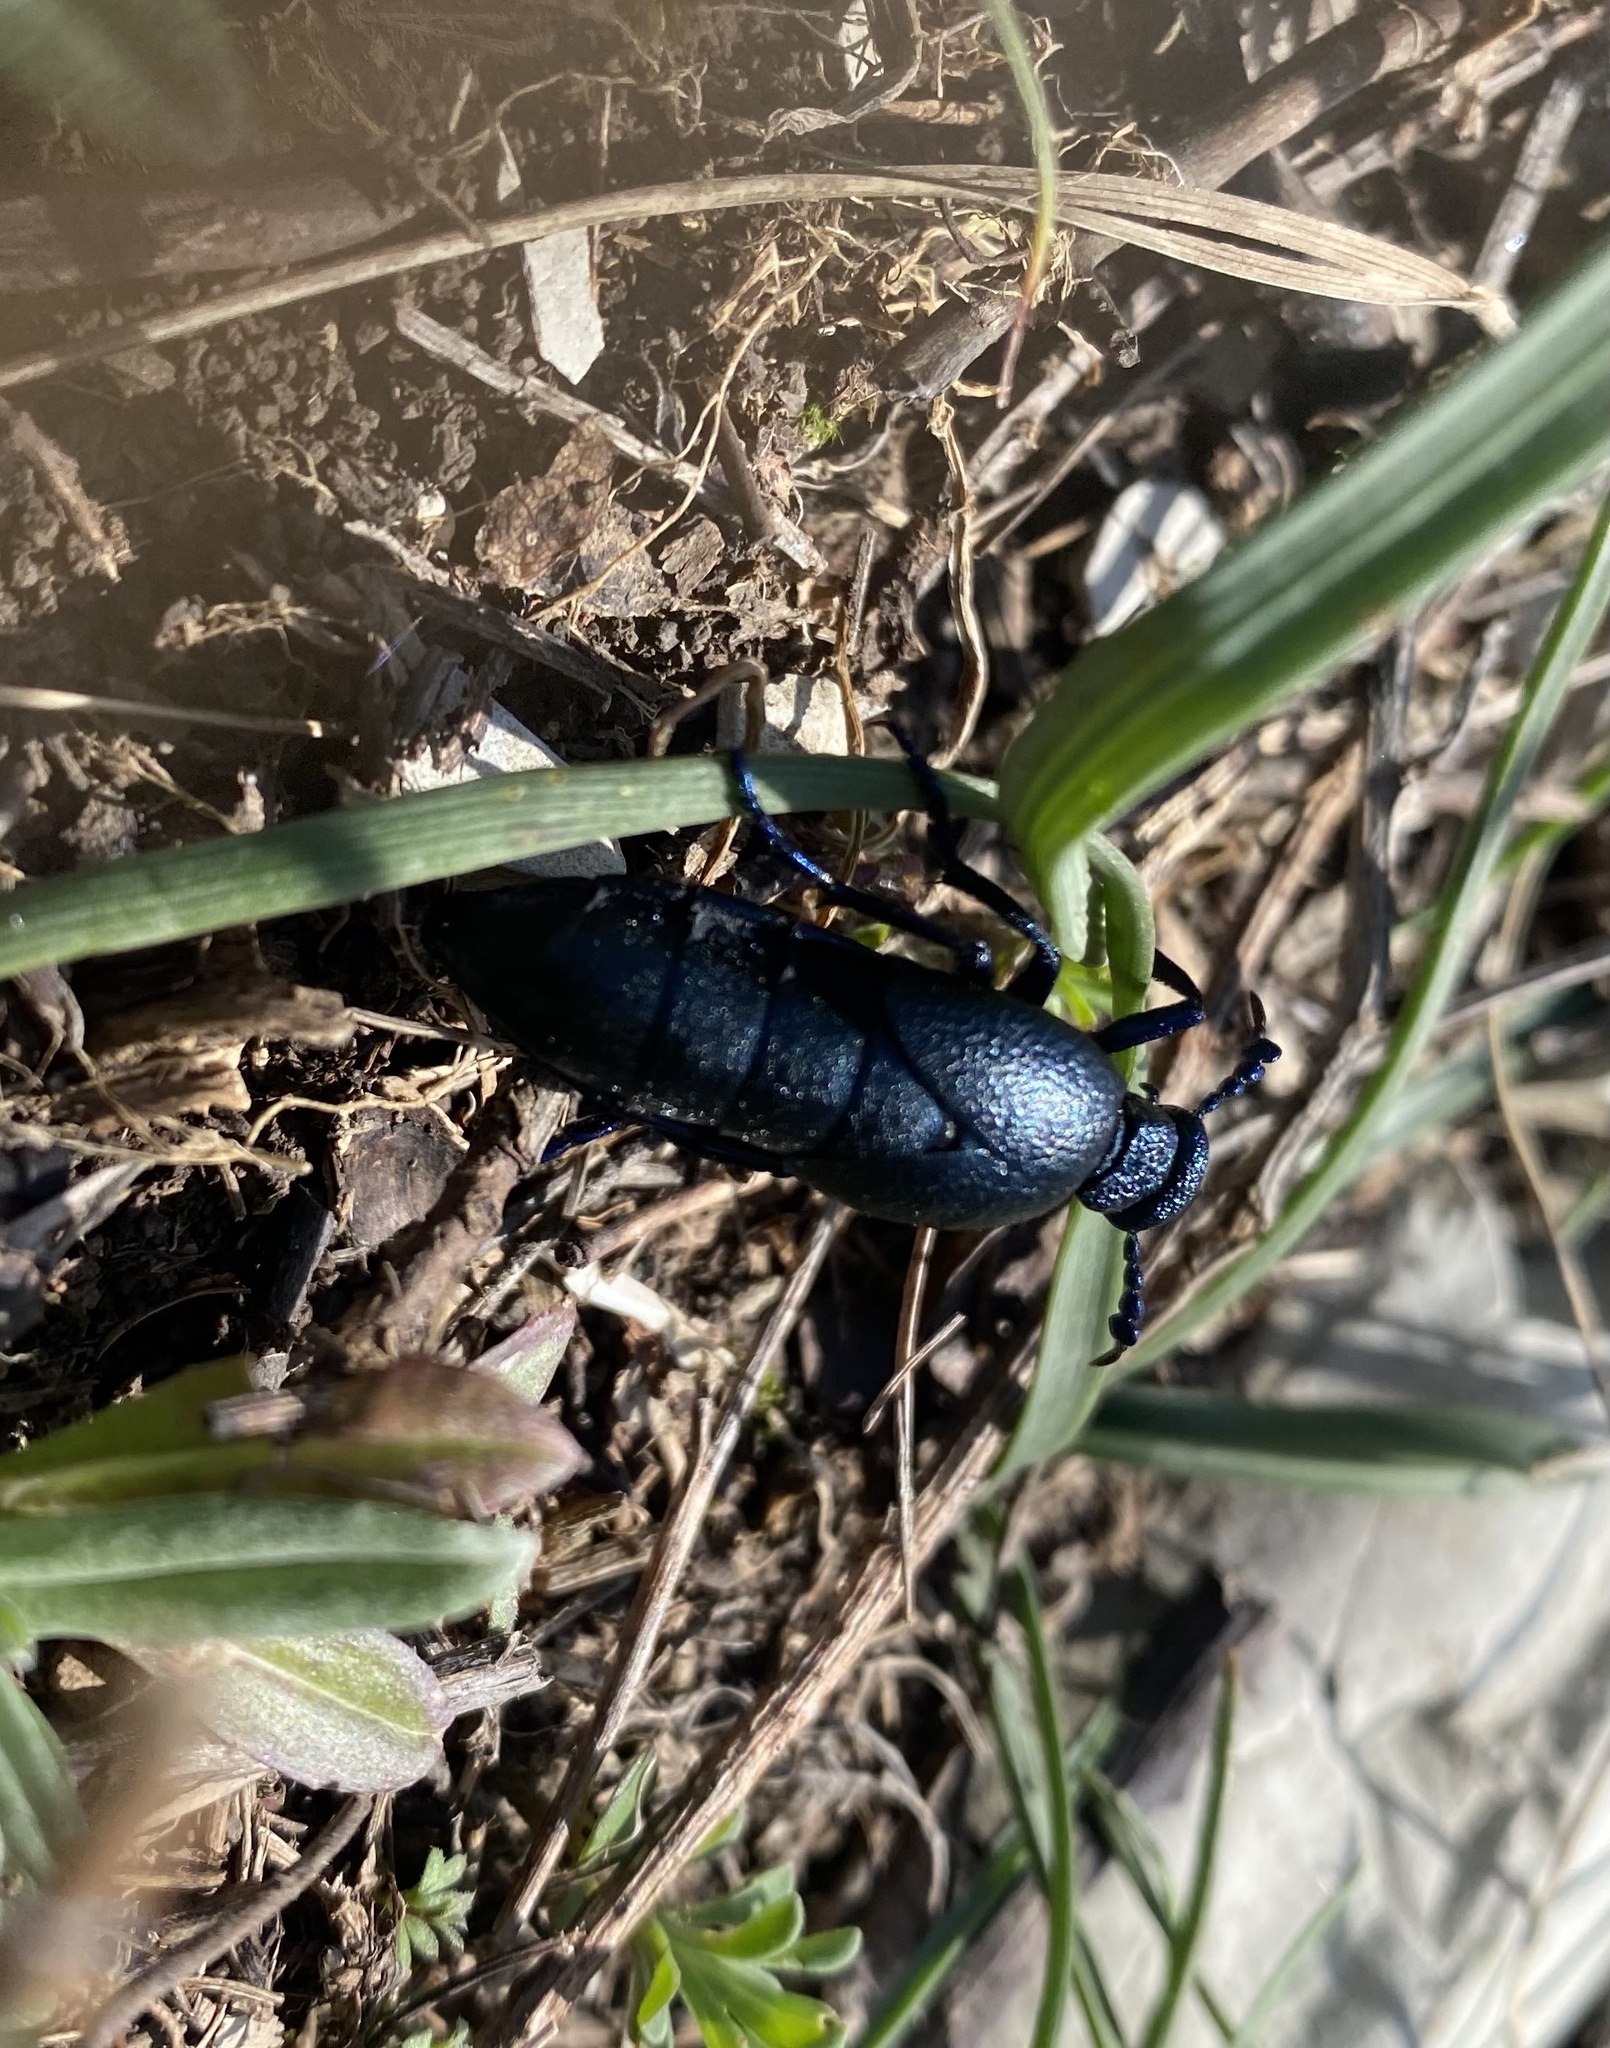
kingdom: Animalia
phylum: Arthropoda
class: Insecta
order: Coleoptera
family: Meloidae
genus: Meloe
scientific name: Meloe proscarabaeus
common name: Black oil-beetle
